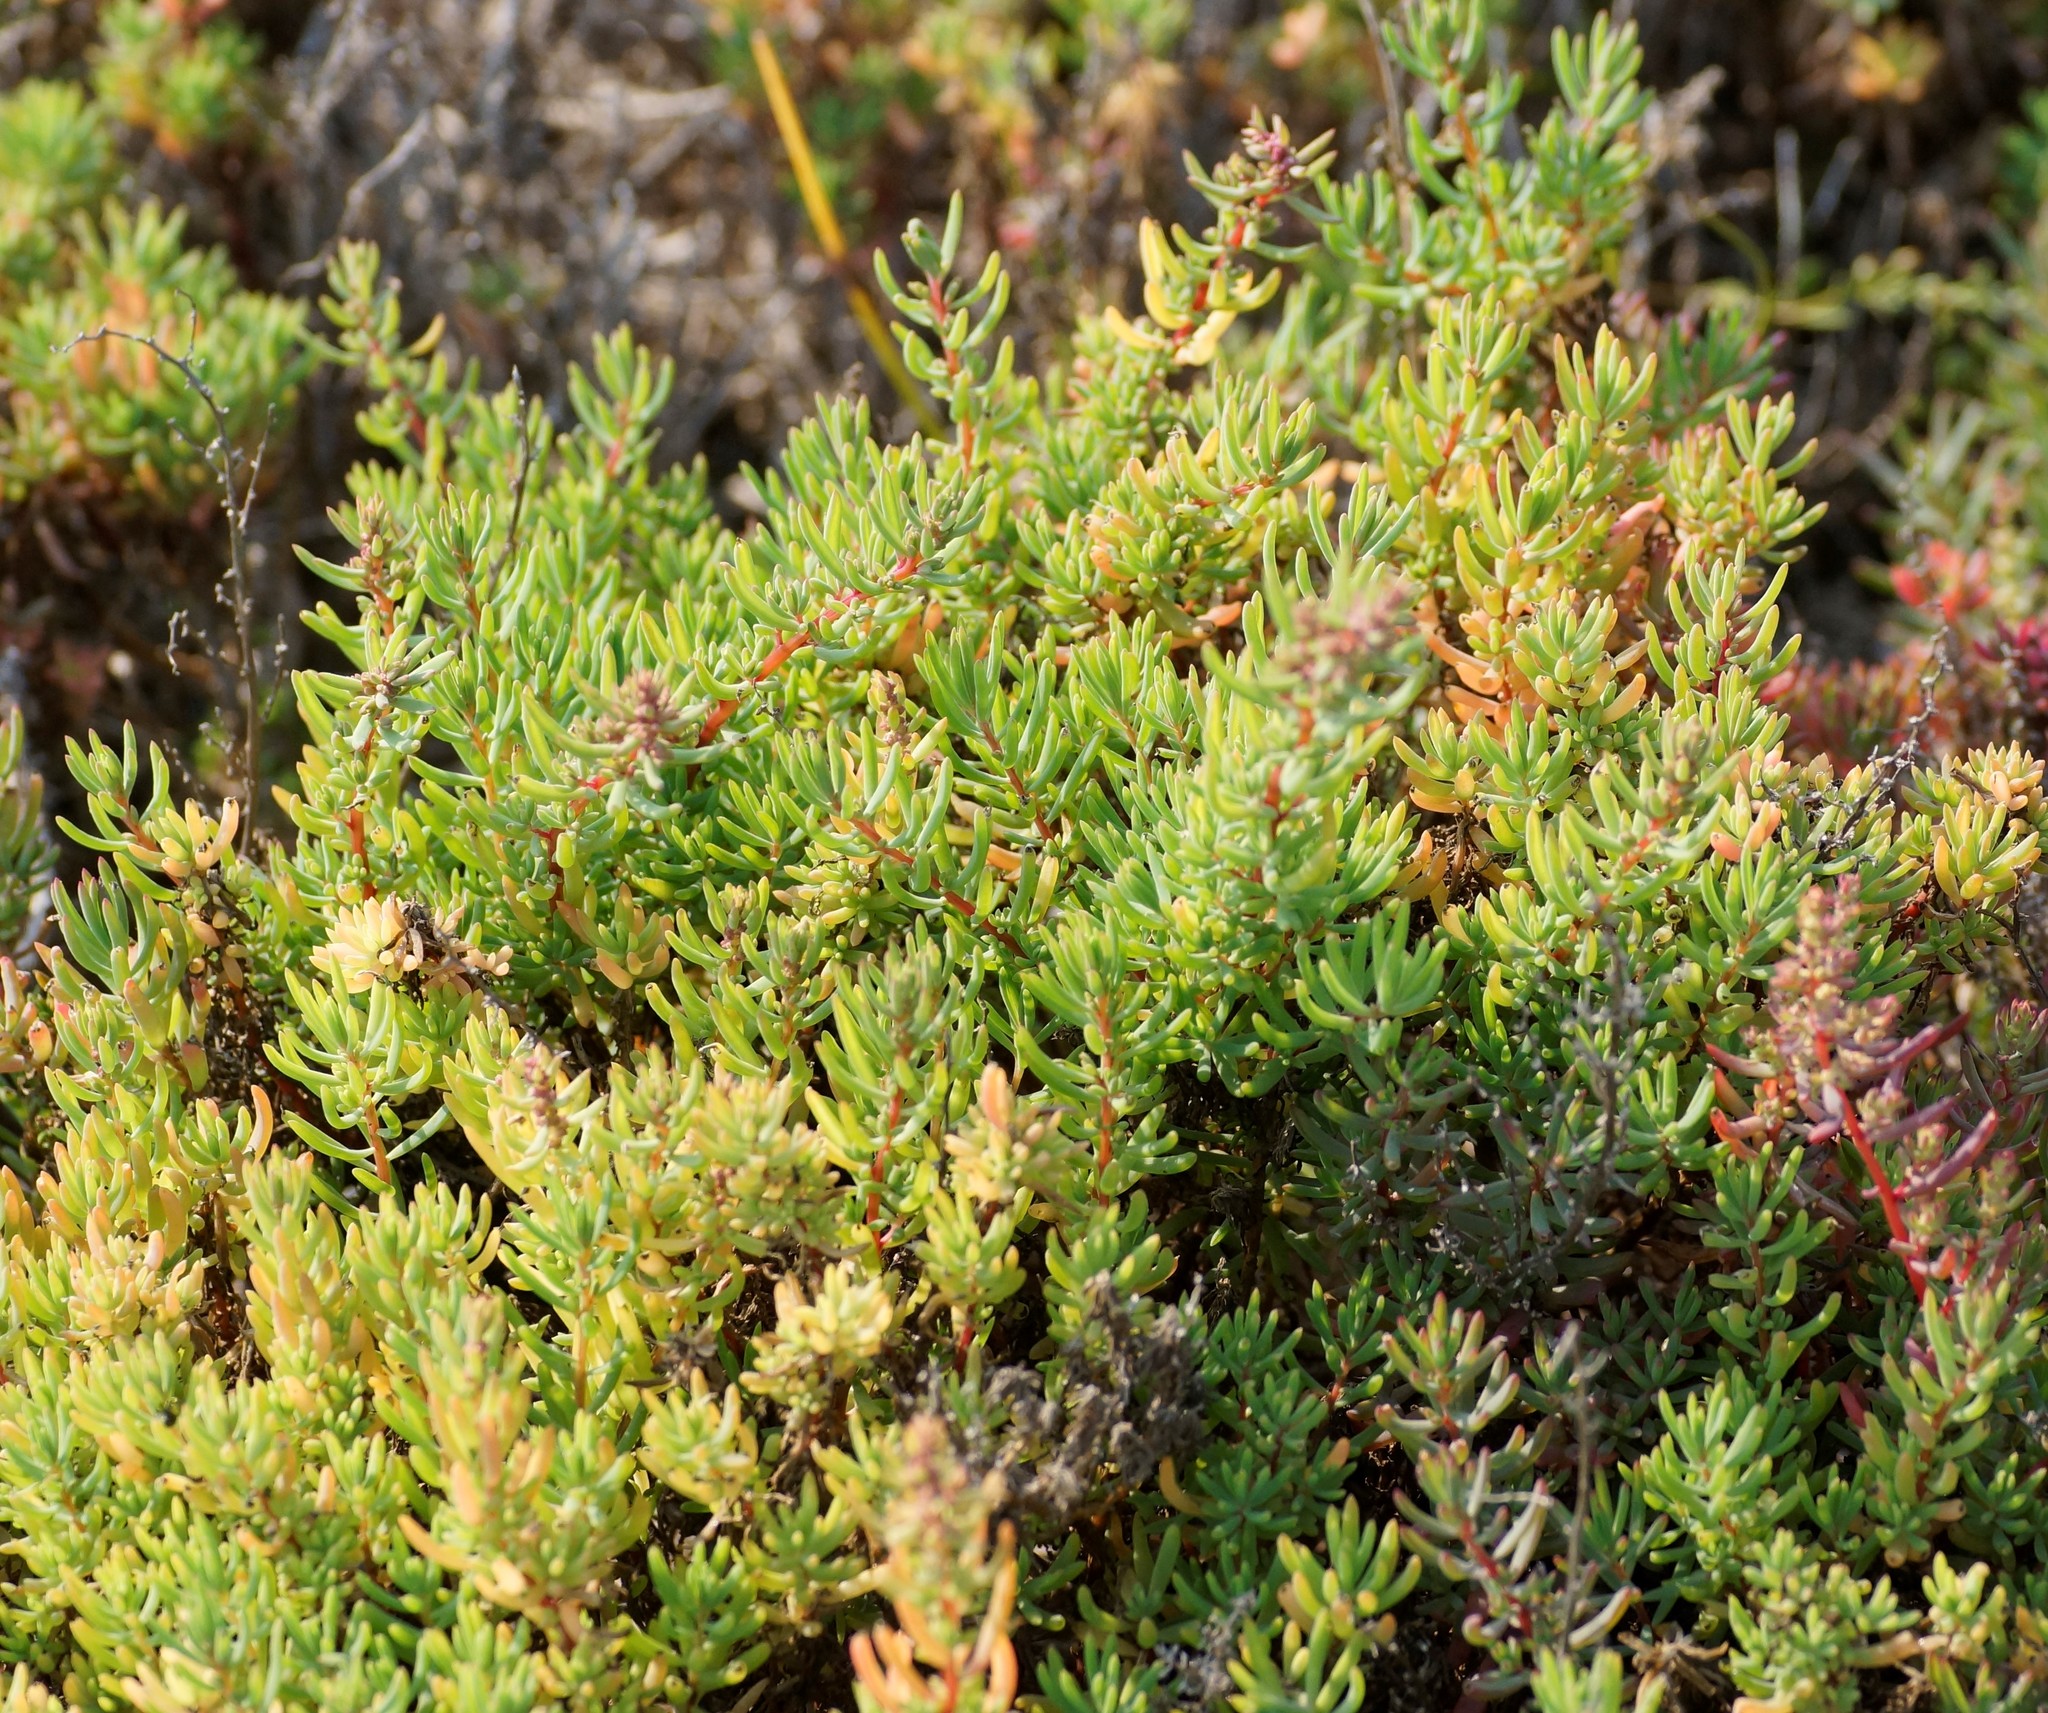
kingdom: Plantae
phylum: Tracheophyta
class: Magnoliopsida
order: Caryophyllales
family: Amaranthaceae
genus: Suaeda
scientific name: Suaeda australis
